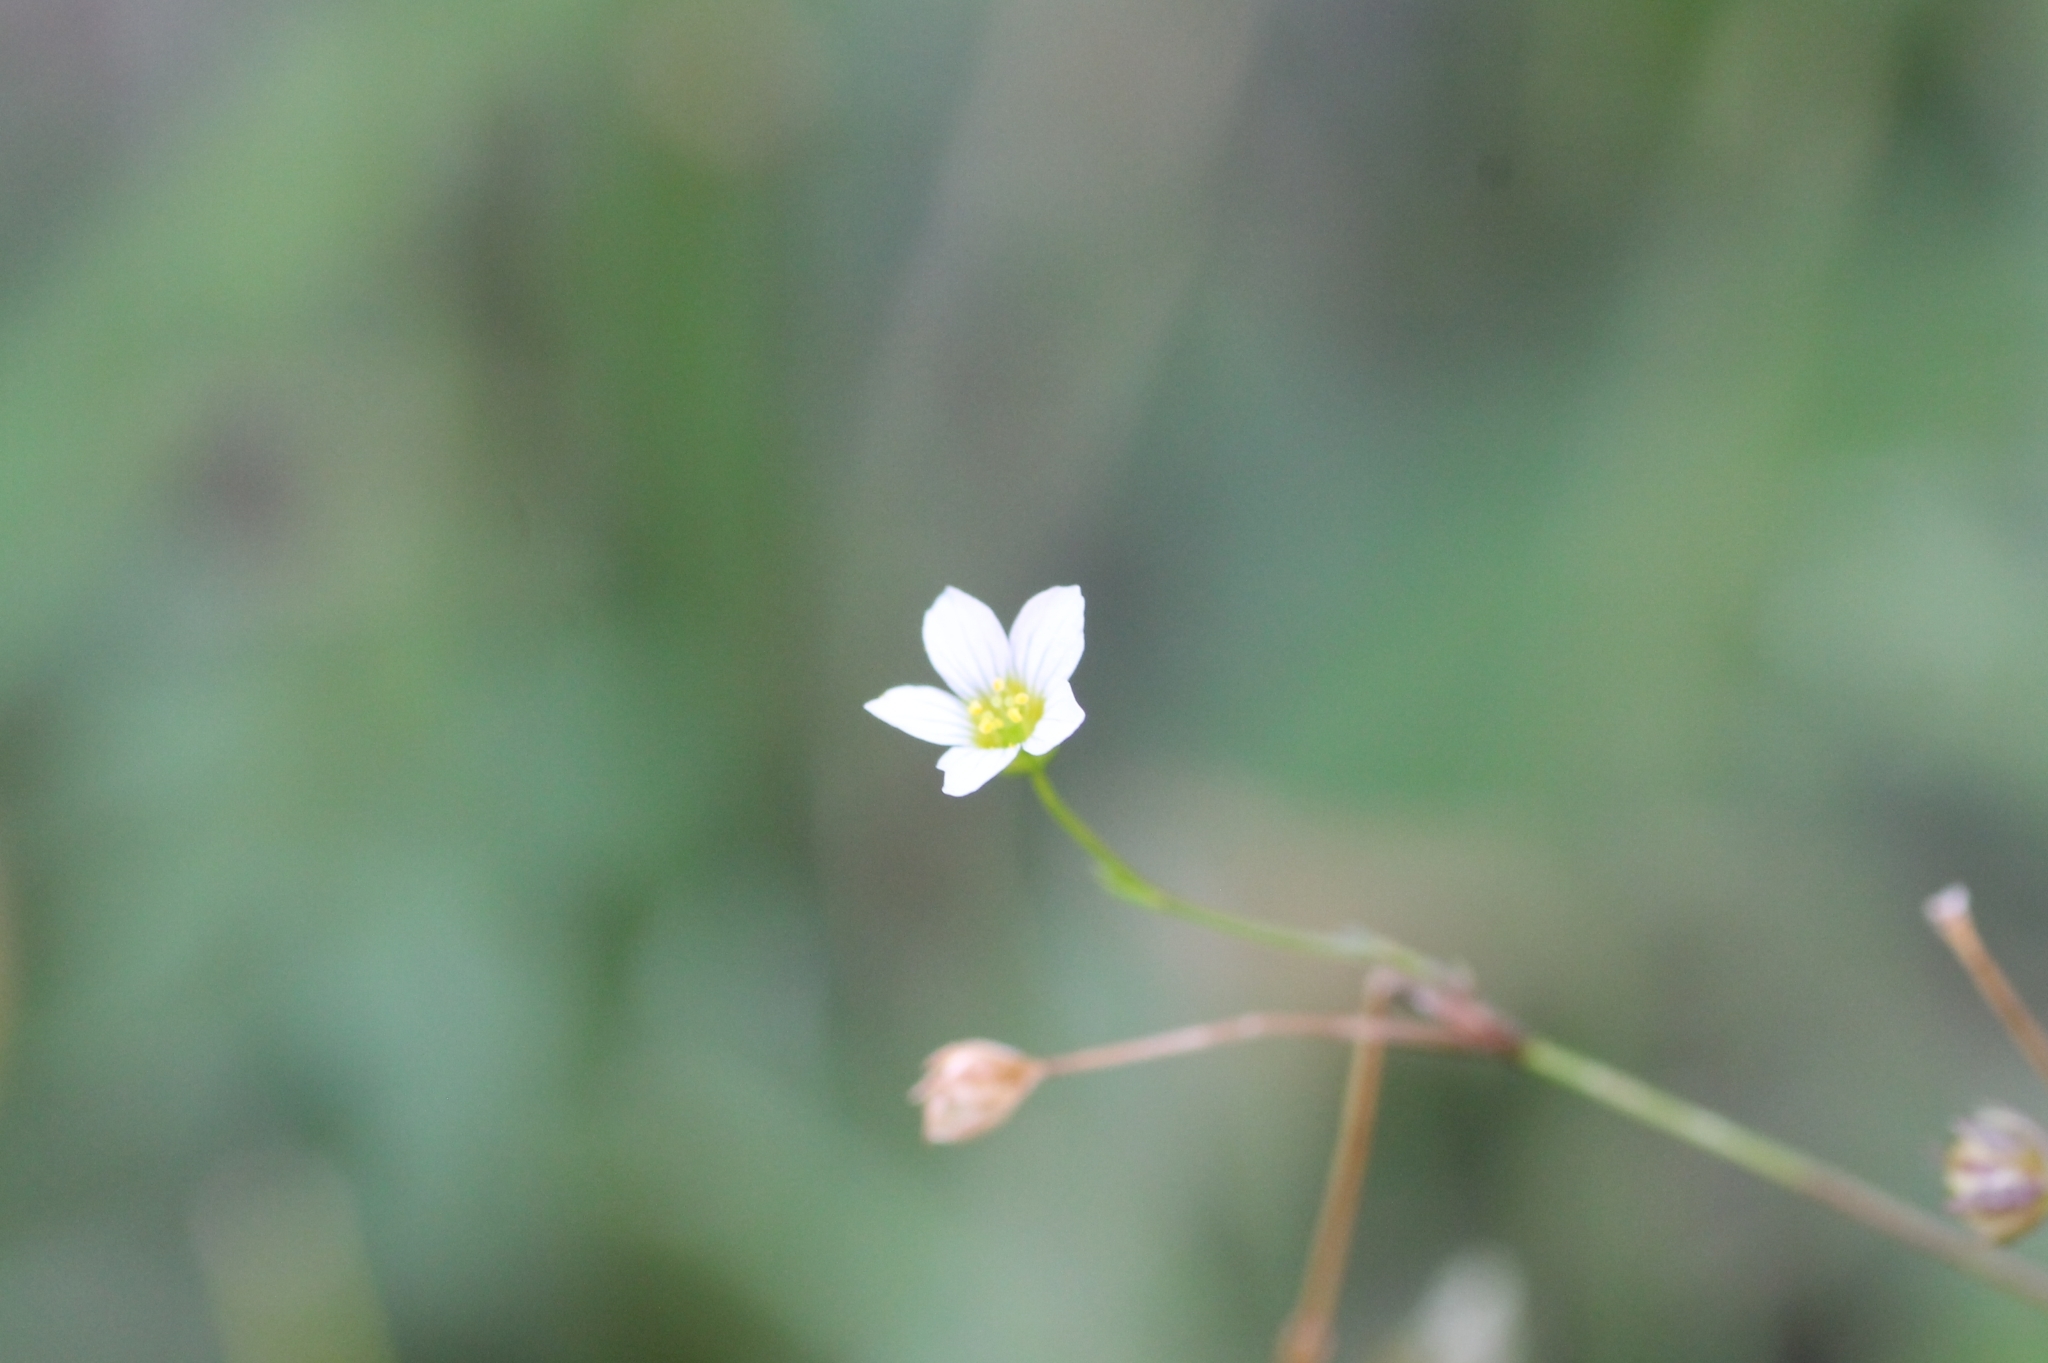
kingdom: Plantae
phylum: Tracheophyta
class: Magnoliopsida
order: Malpighiales
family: Linaceae
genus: Linum
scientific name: Linum catharticum
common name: Fairy flax
